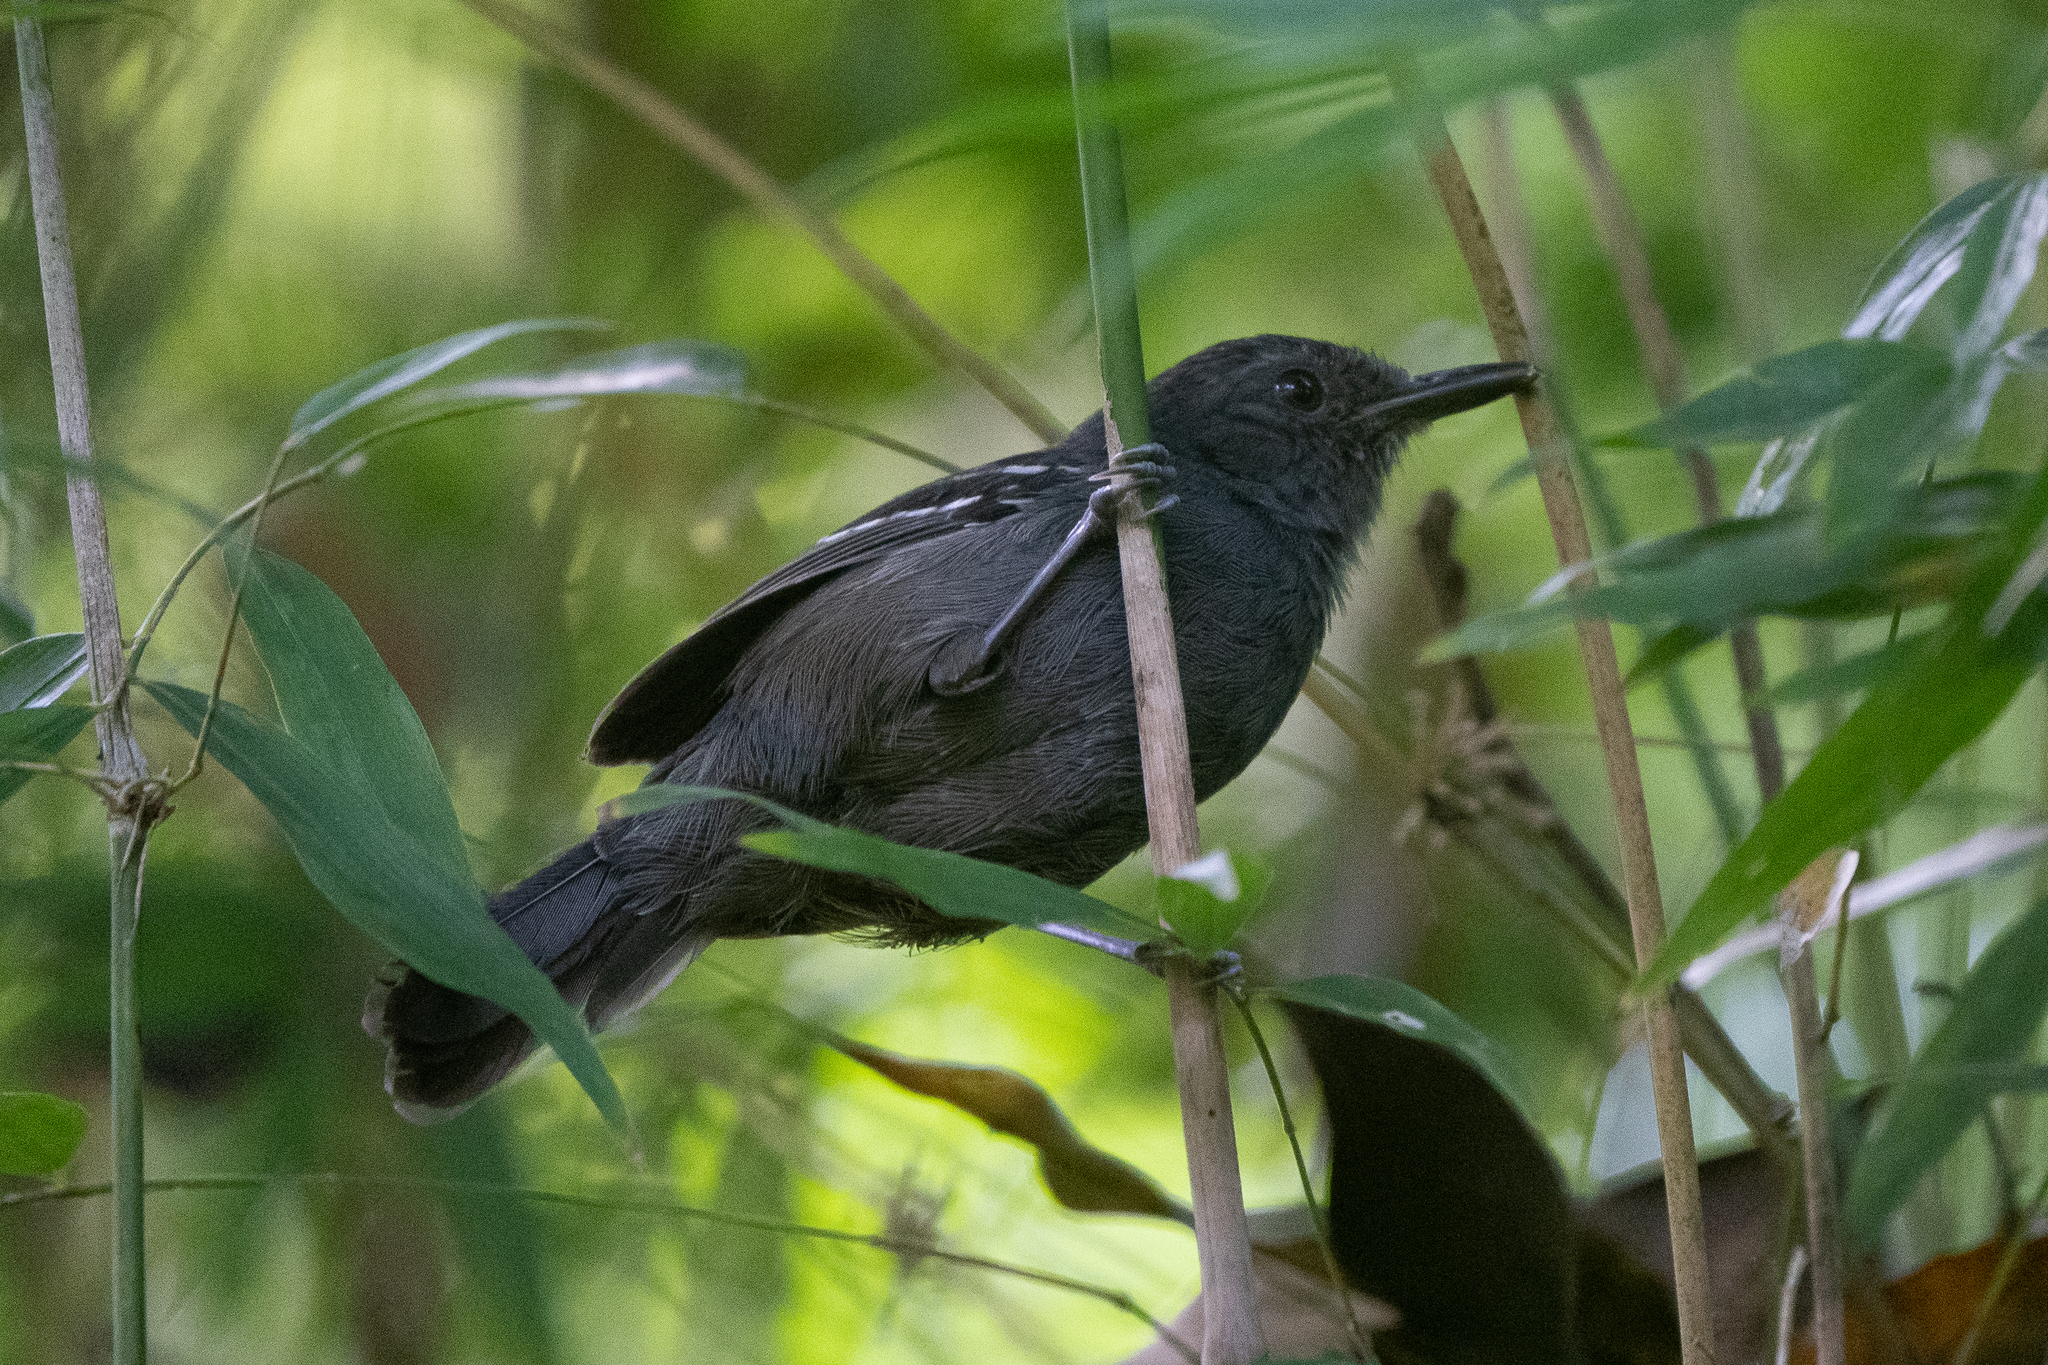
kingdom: Animalia
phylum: Chordata
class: Aves
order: Passeriformes
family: Thamnophilidae
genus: Cercomacra
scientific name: Cercomacra tyrannina
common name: Dusky antbird
